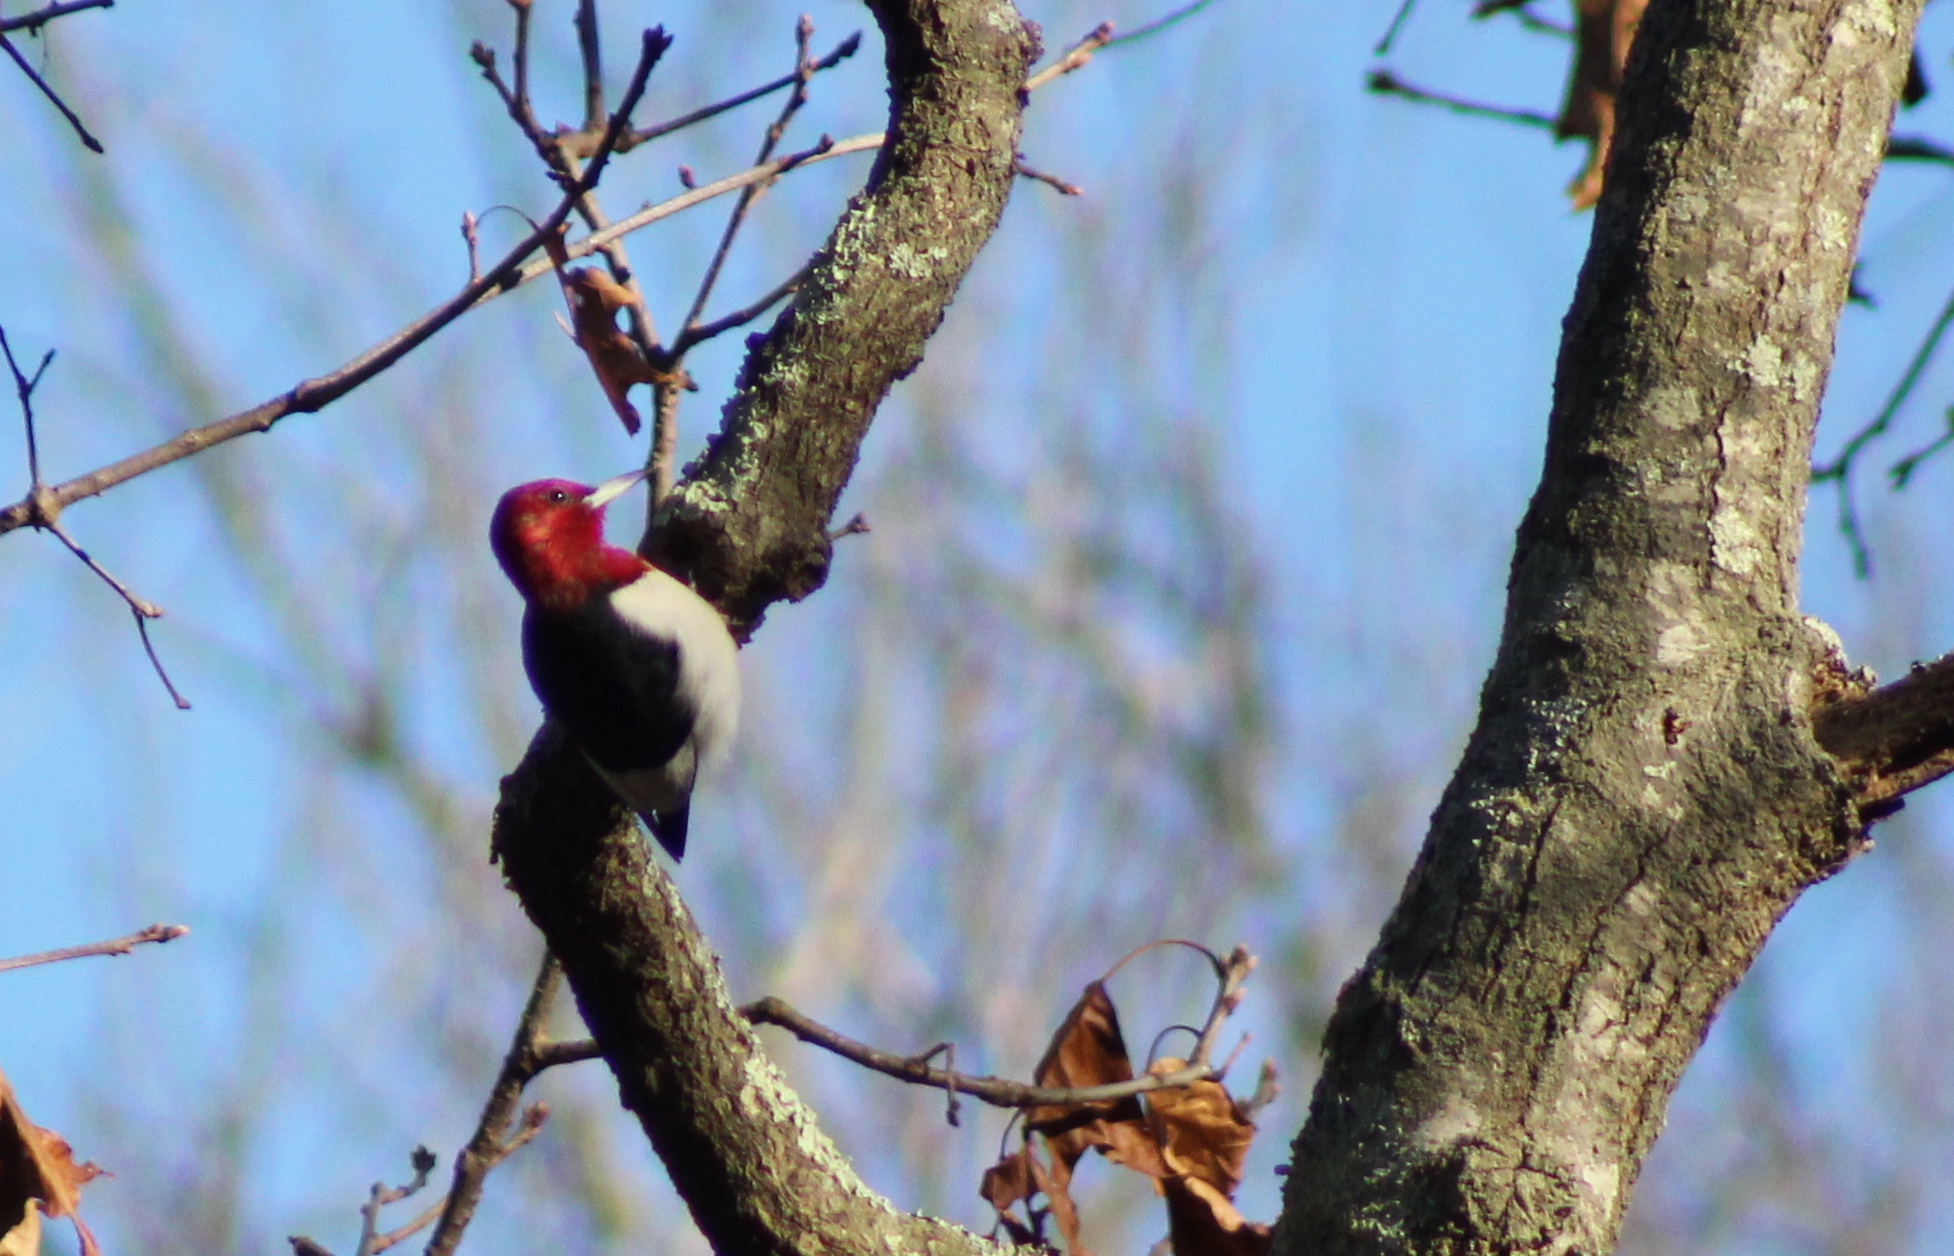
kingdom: Animalia
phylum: Chordata
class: Aves
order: Piciformes
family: Picidae
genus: Melanerpes
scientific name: Melanerpes erythrocephalus
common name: Red-headed woodpecker
